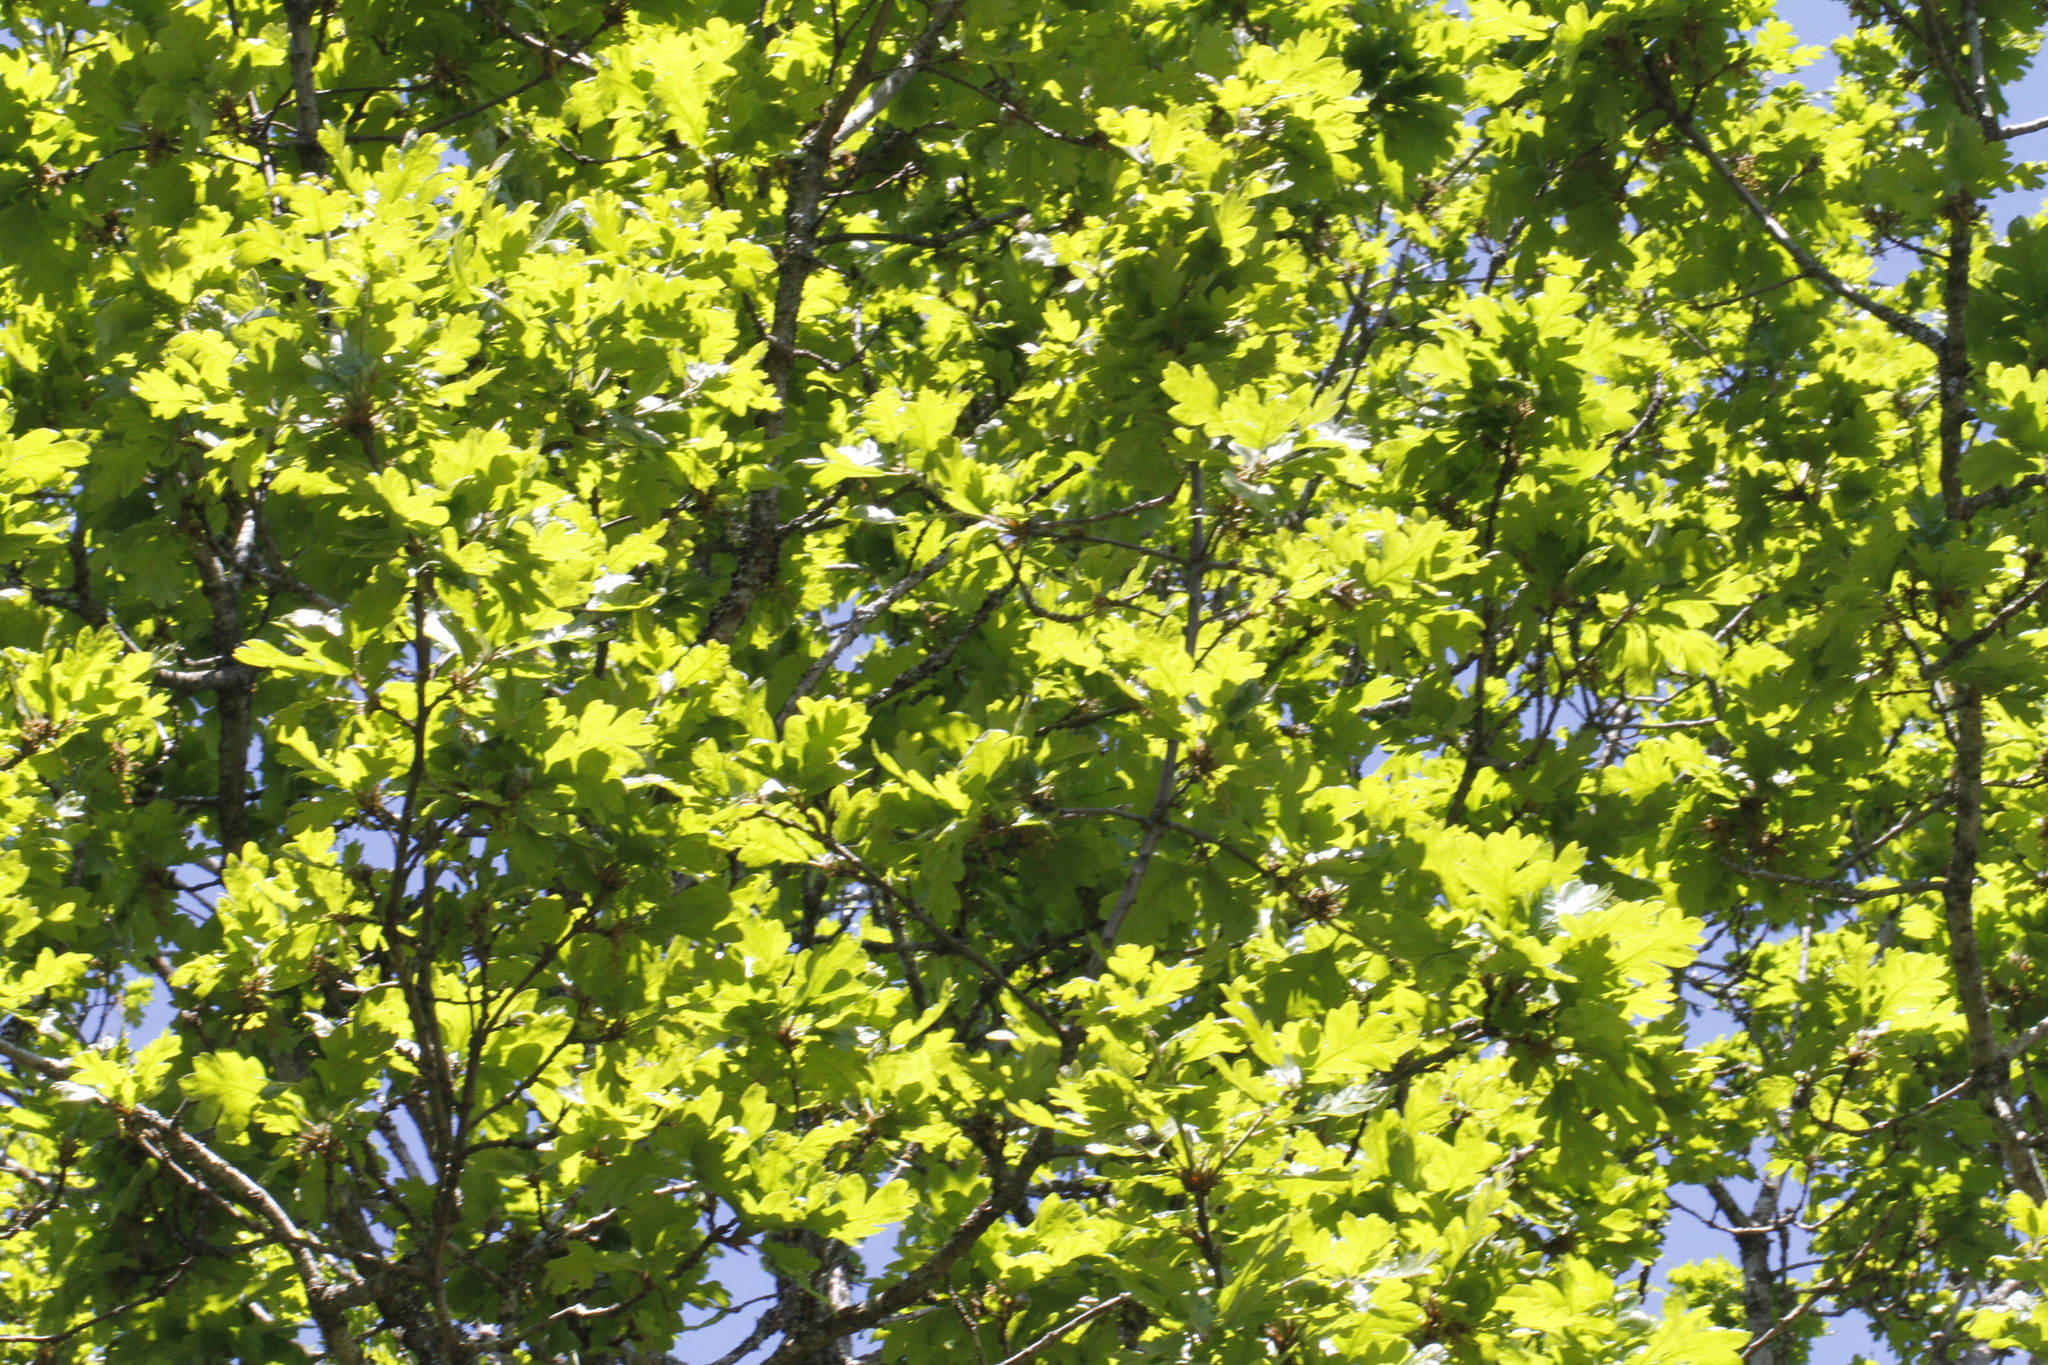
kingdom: Plantae
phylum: Tracheophyta
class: Magnoliopsida
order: Fagales
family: Fagaceae
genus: Quercus
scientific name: Quercus garryana
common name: Garry oak
